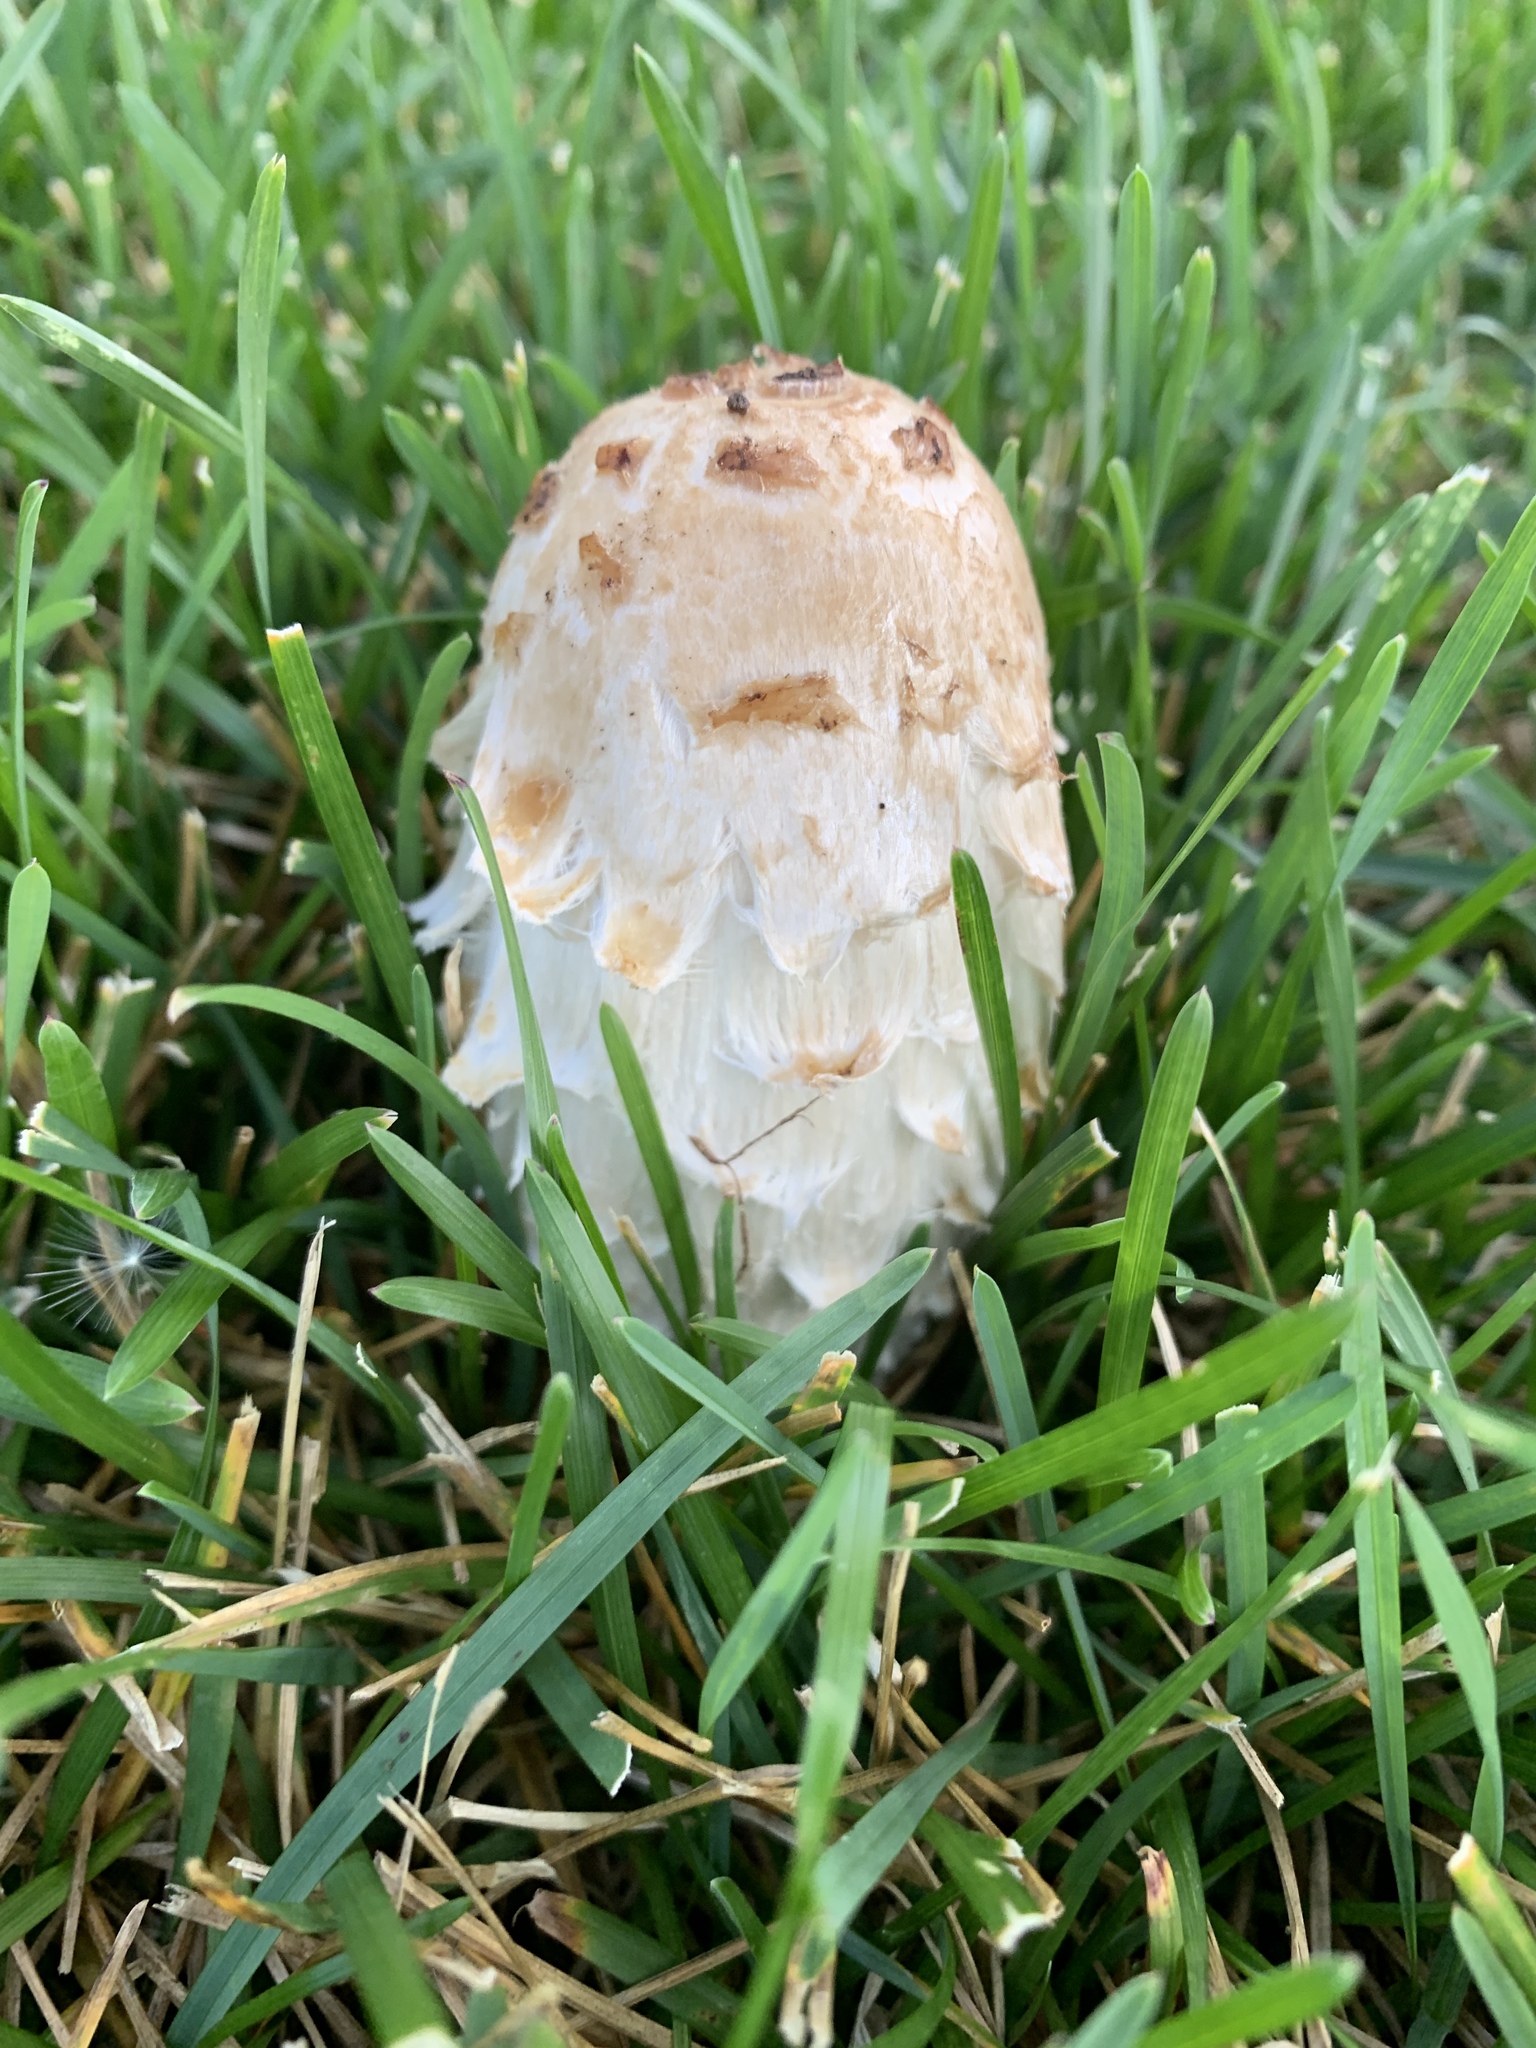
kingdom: Fungi
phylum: Basidiomycota
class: Agaricomycetes
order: Agaricales
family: Agaricaceae
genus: Coprinus
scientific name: Coprinus comatus
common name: Lawyer's wig
